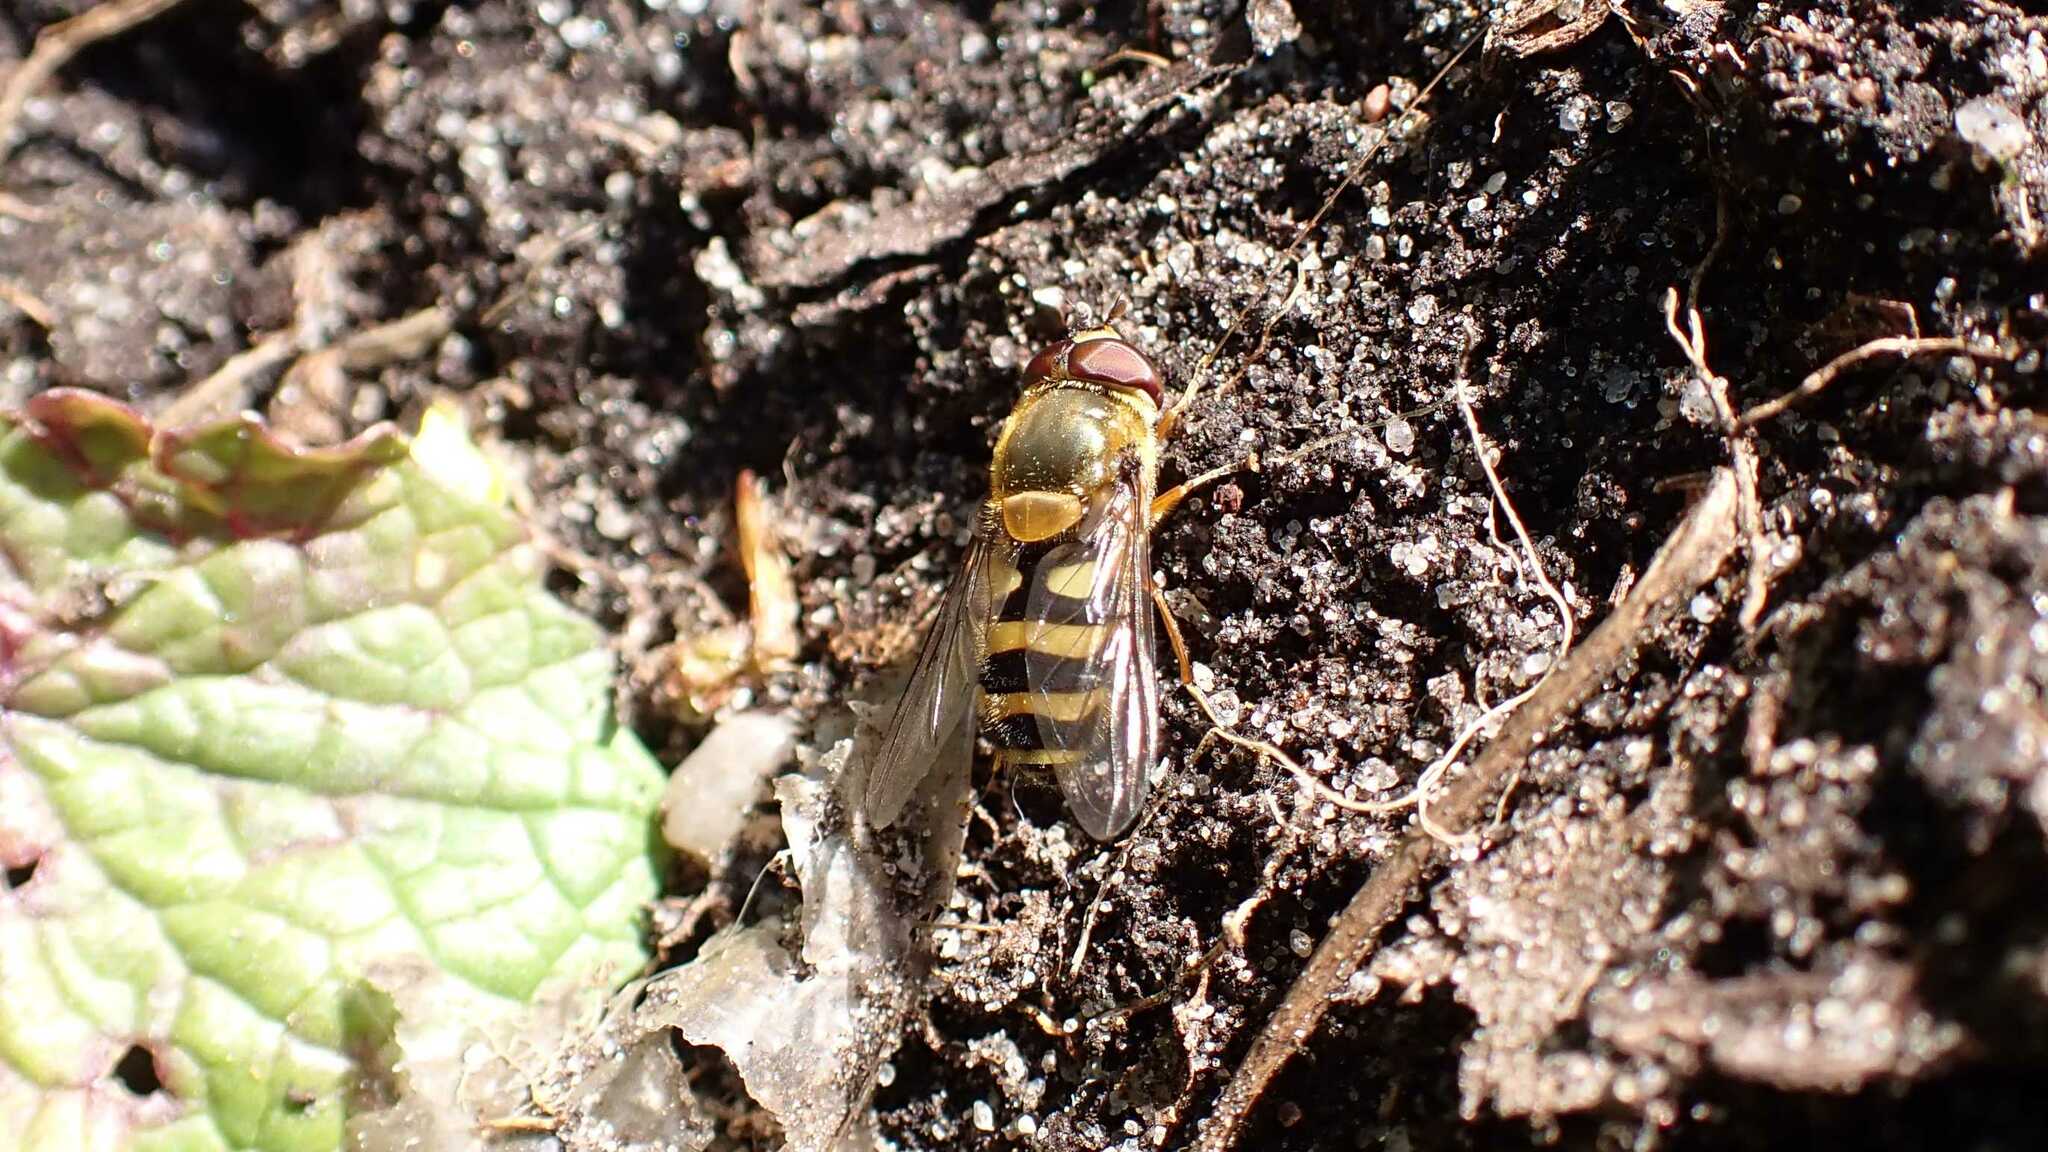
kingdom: Animalia
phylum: Arthropoda
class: Insecta
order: Diptera
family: Syrphidae
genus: Syrphus
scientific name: Syrphus
